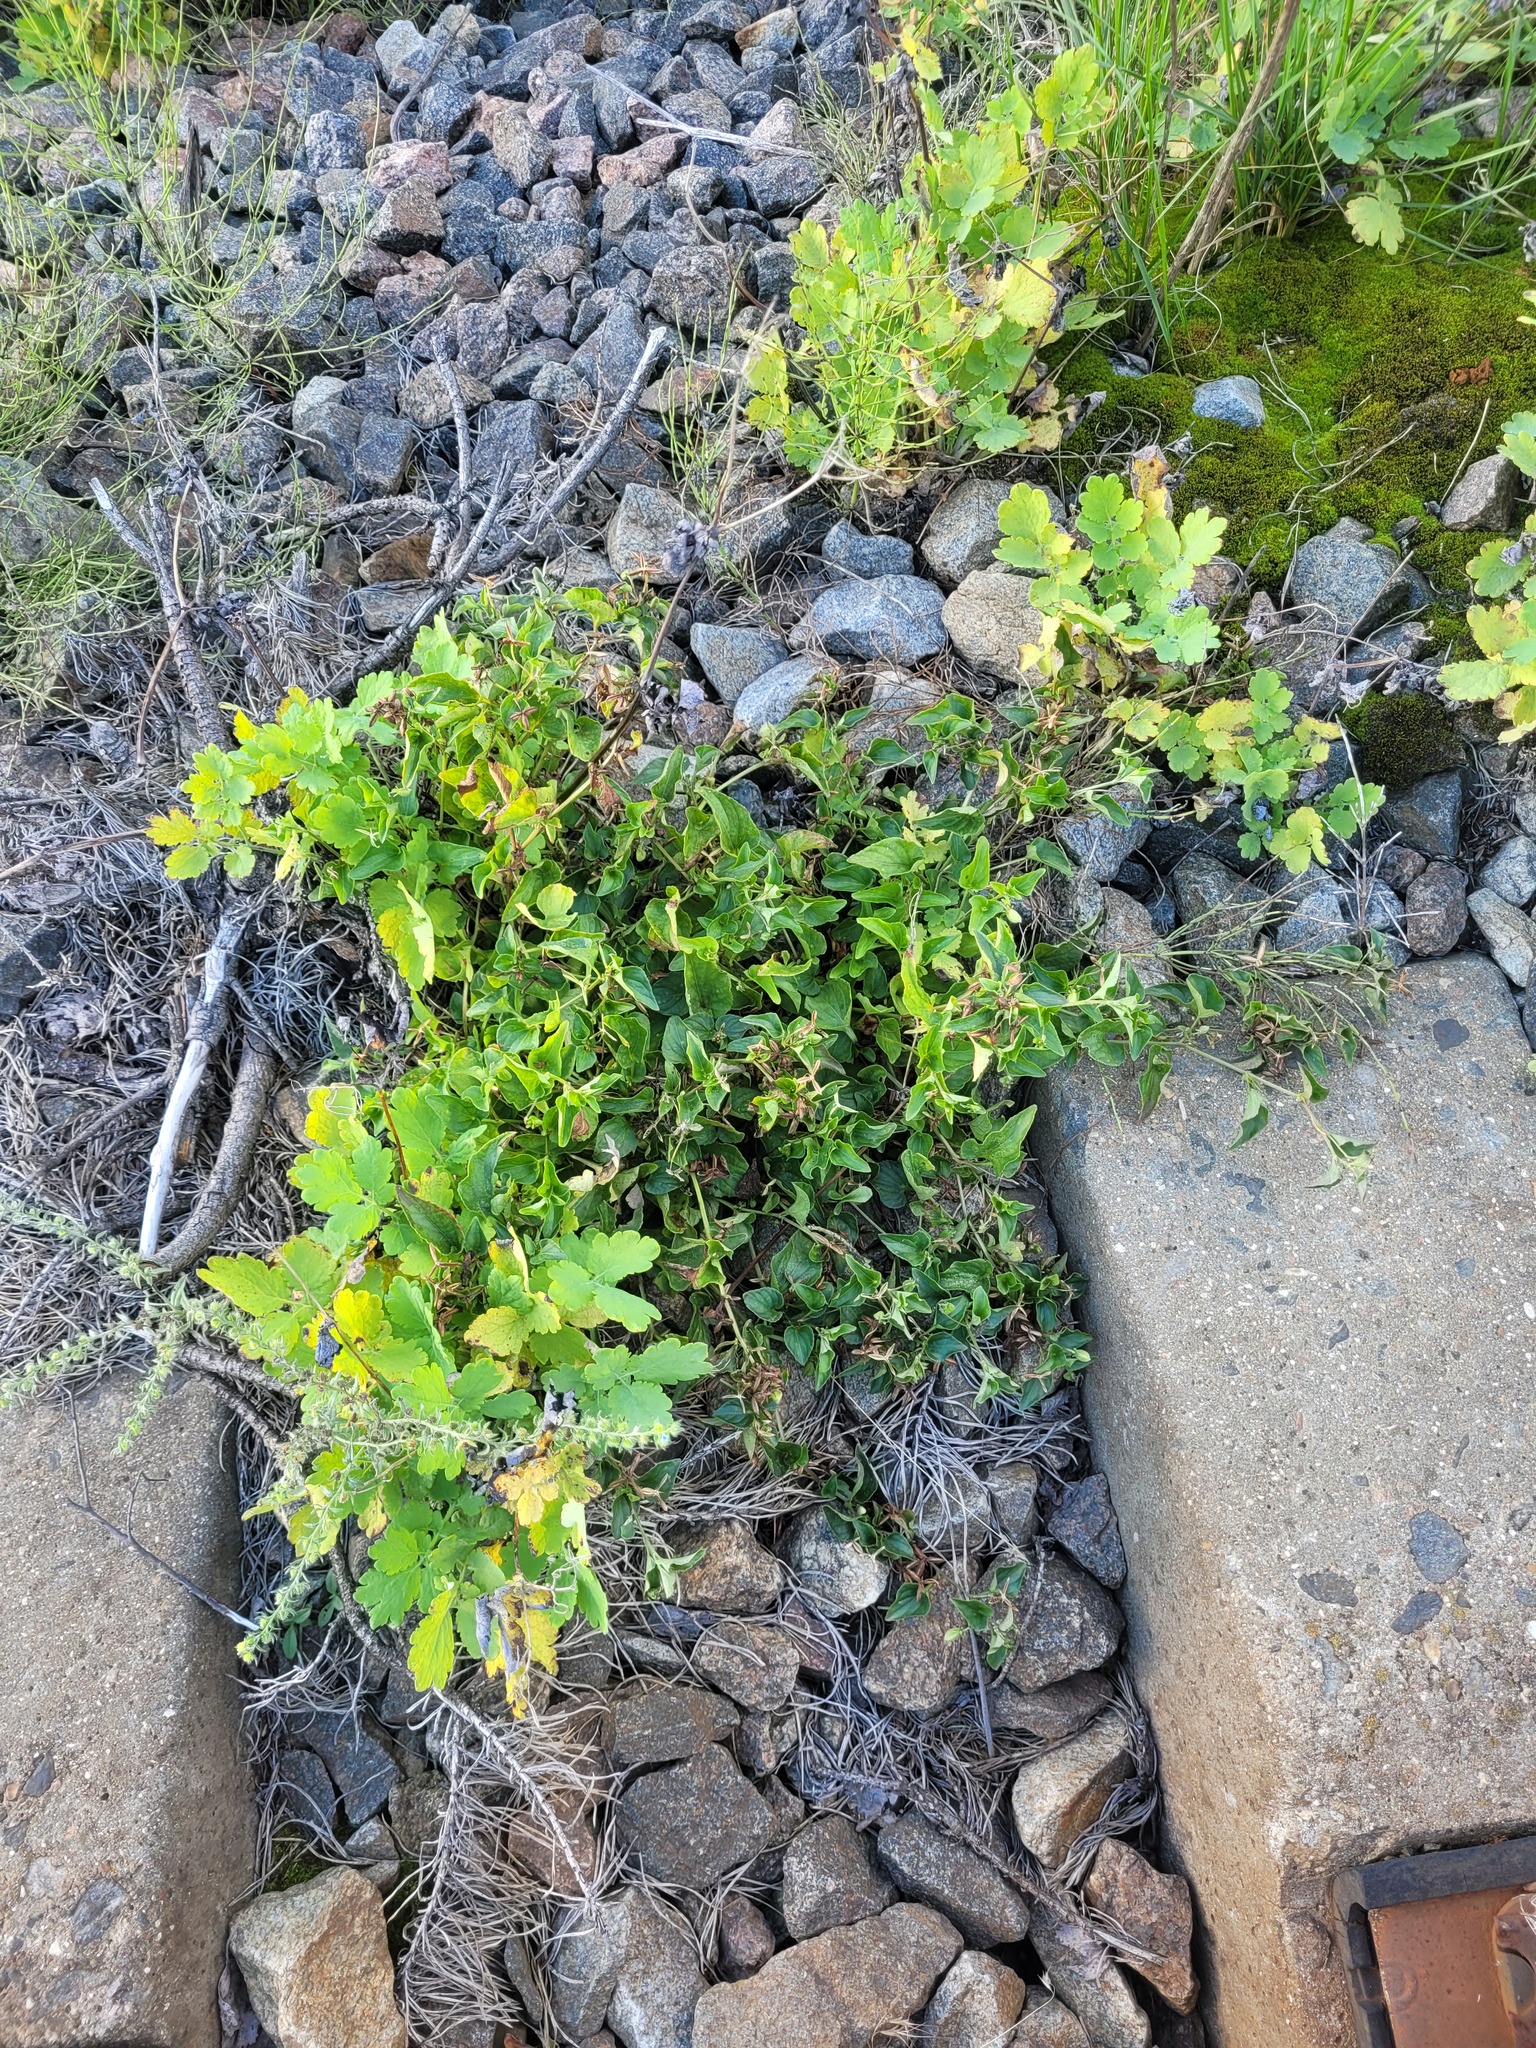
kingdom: Plantae
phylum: Tracheophyta
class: Magnoliopsida
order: Malpighiales
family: Violaceae
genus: Viola
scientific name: Viola canina
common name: Heath dog-violet
